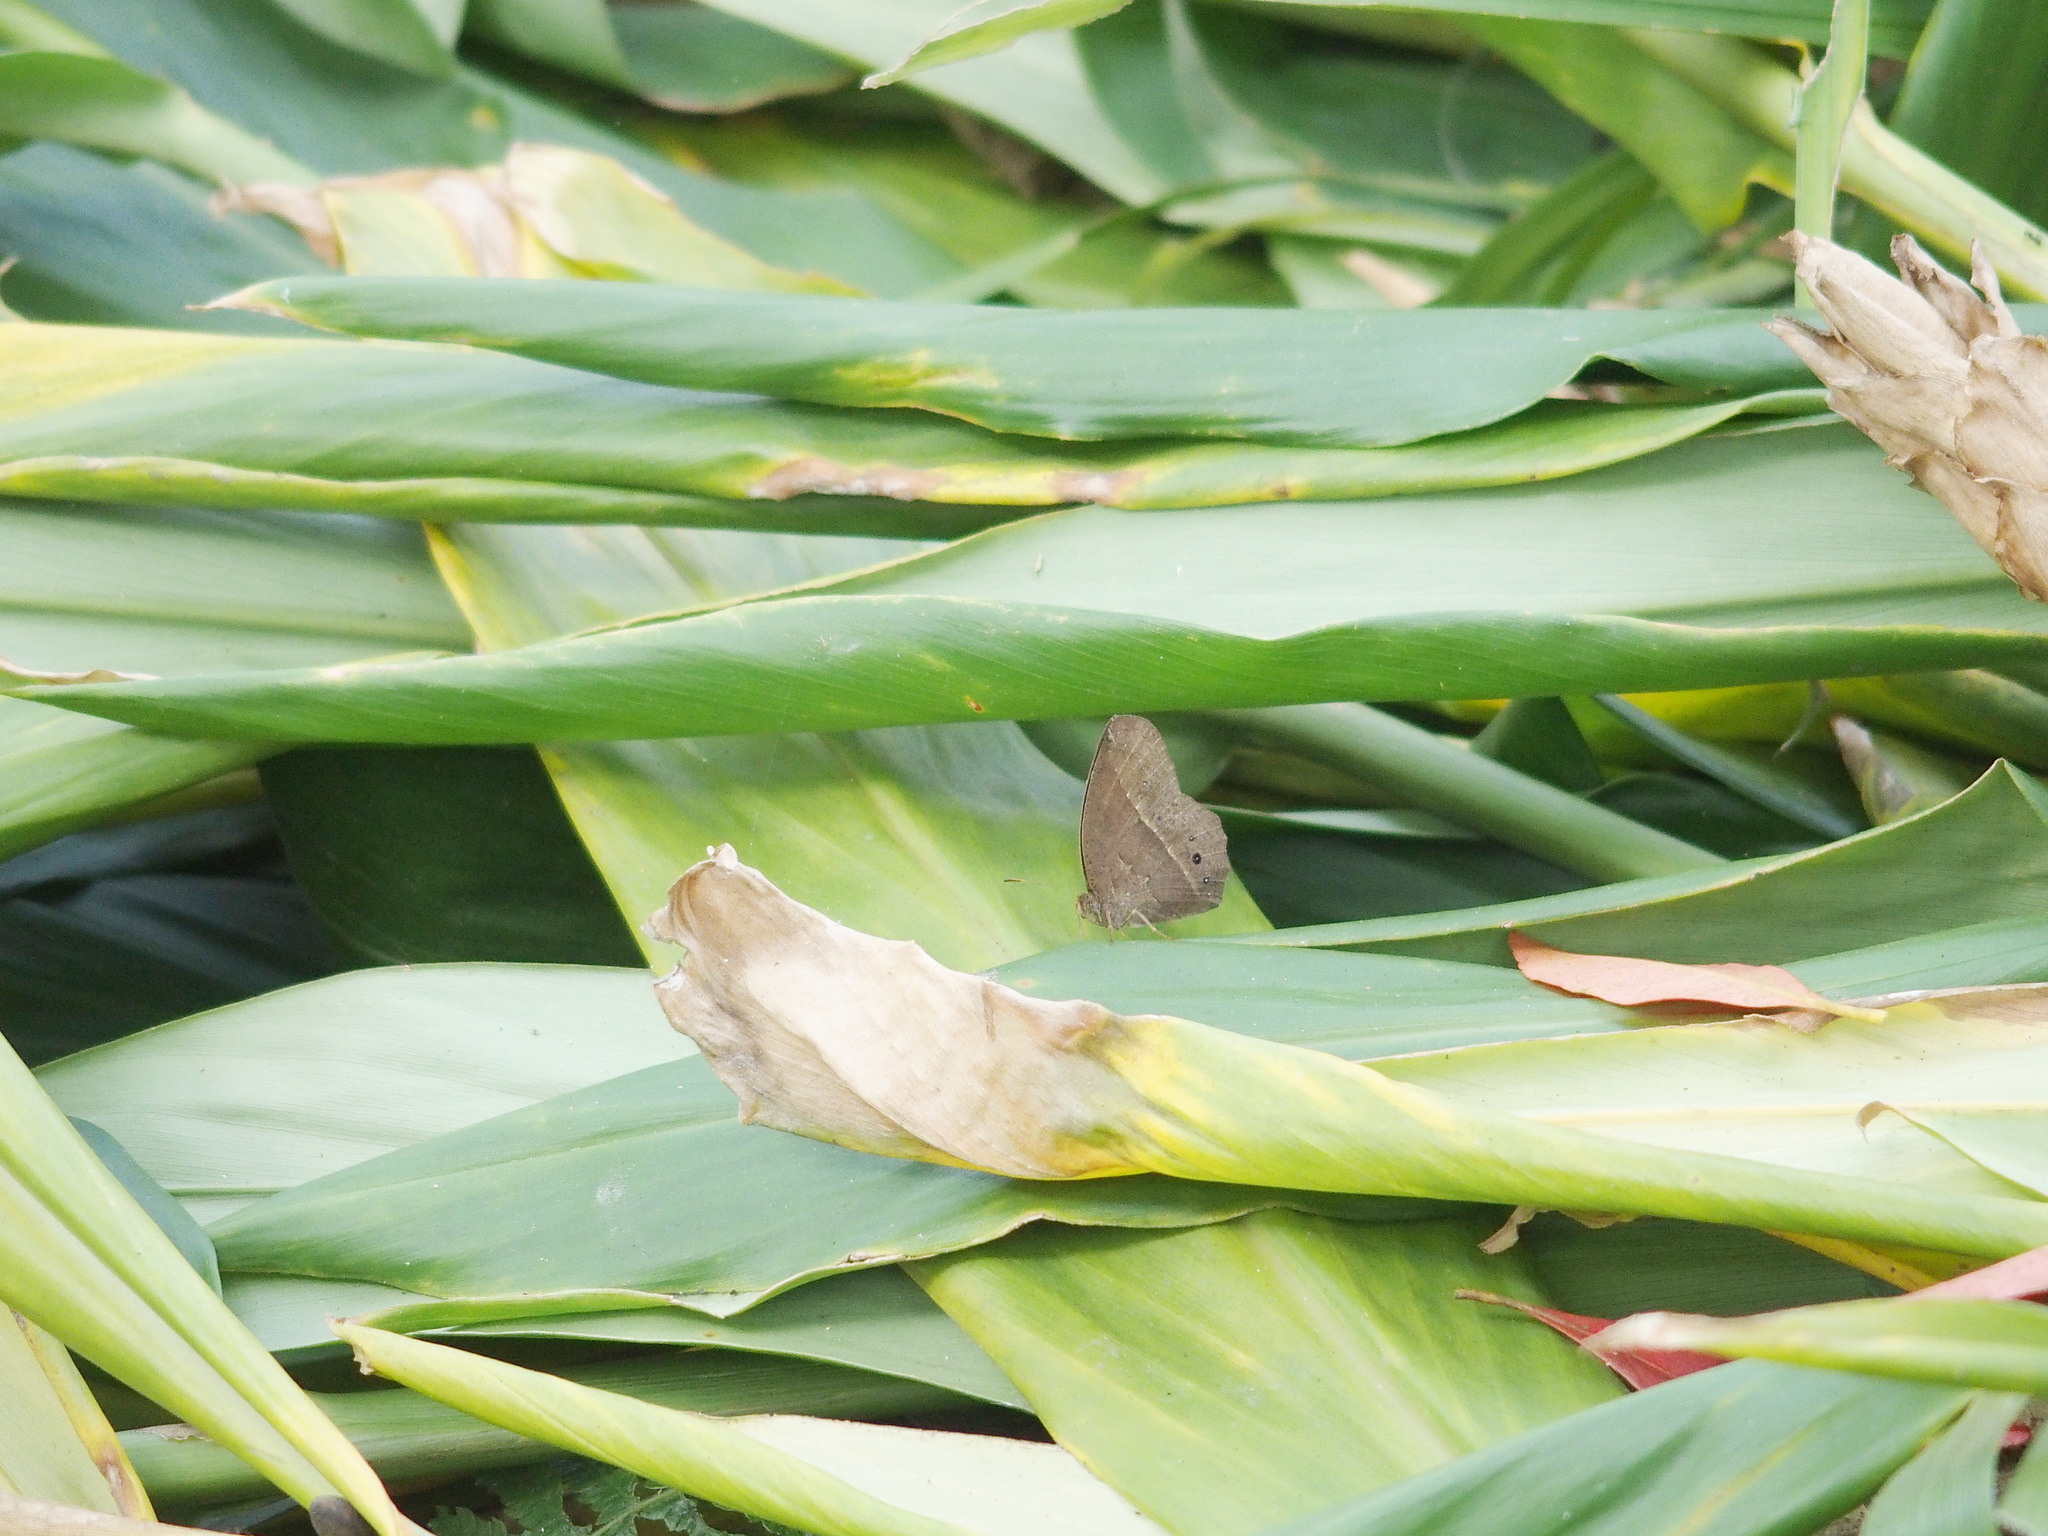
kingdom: Animalia
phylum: Arthropoda
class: Insecta
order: Lepidoptera
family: Nymphalidae
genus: Mycalesis
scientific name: Mycalesis horsfieldii
